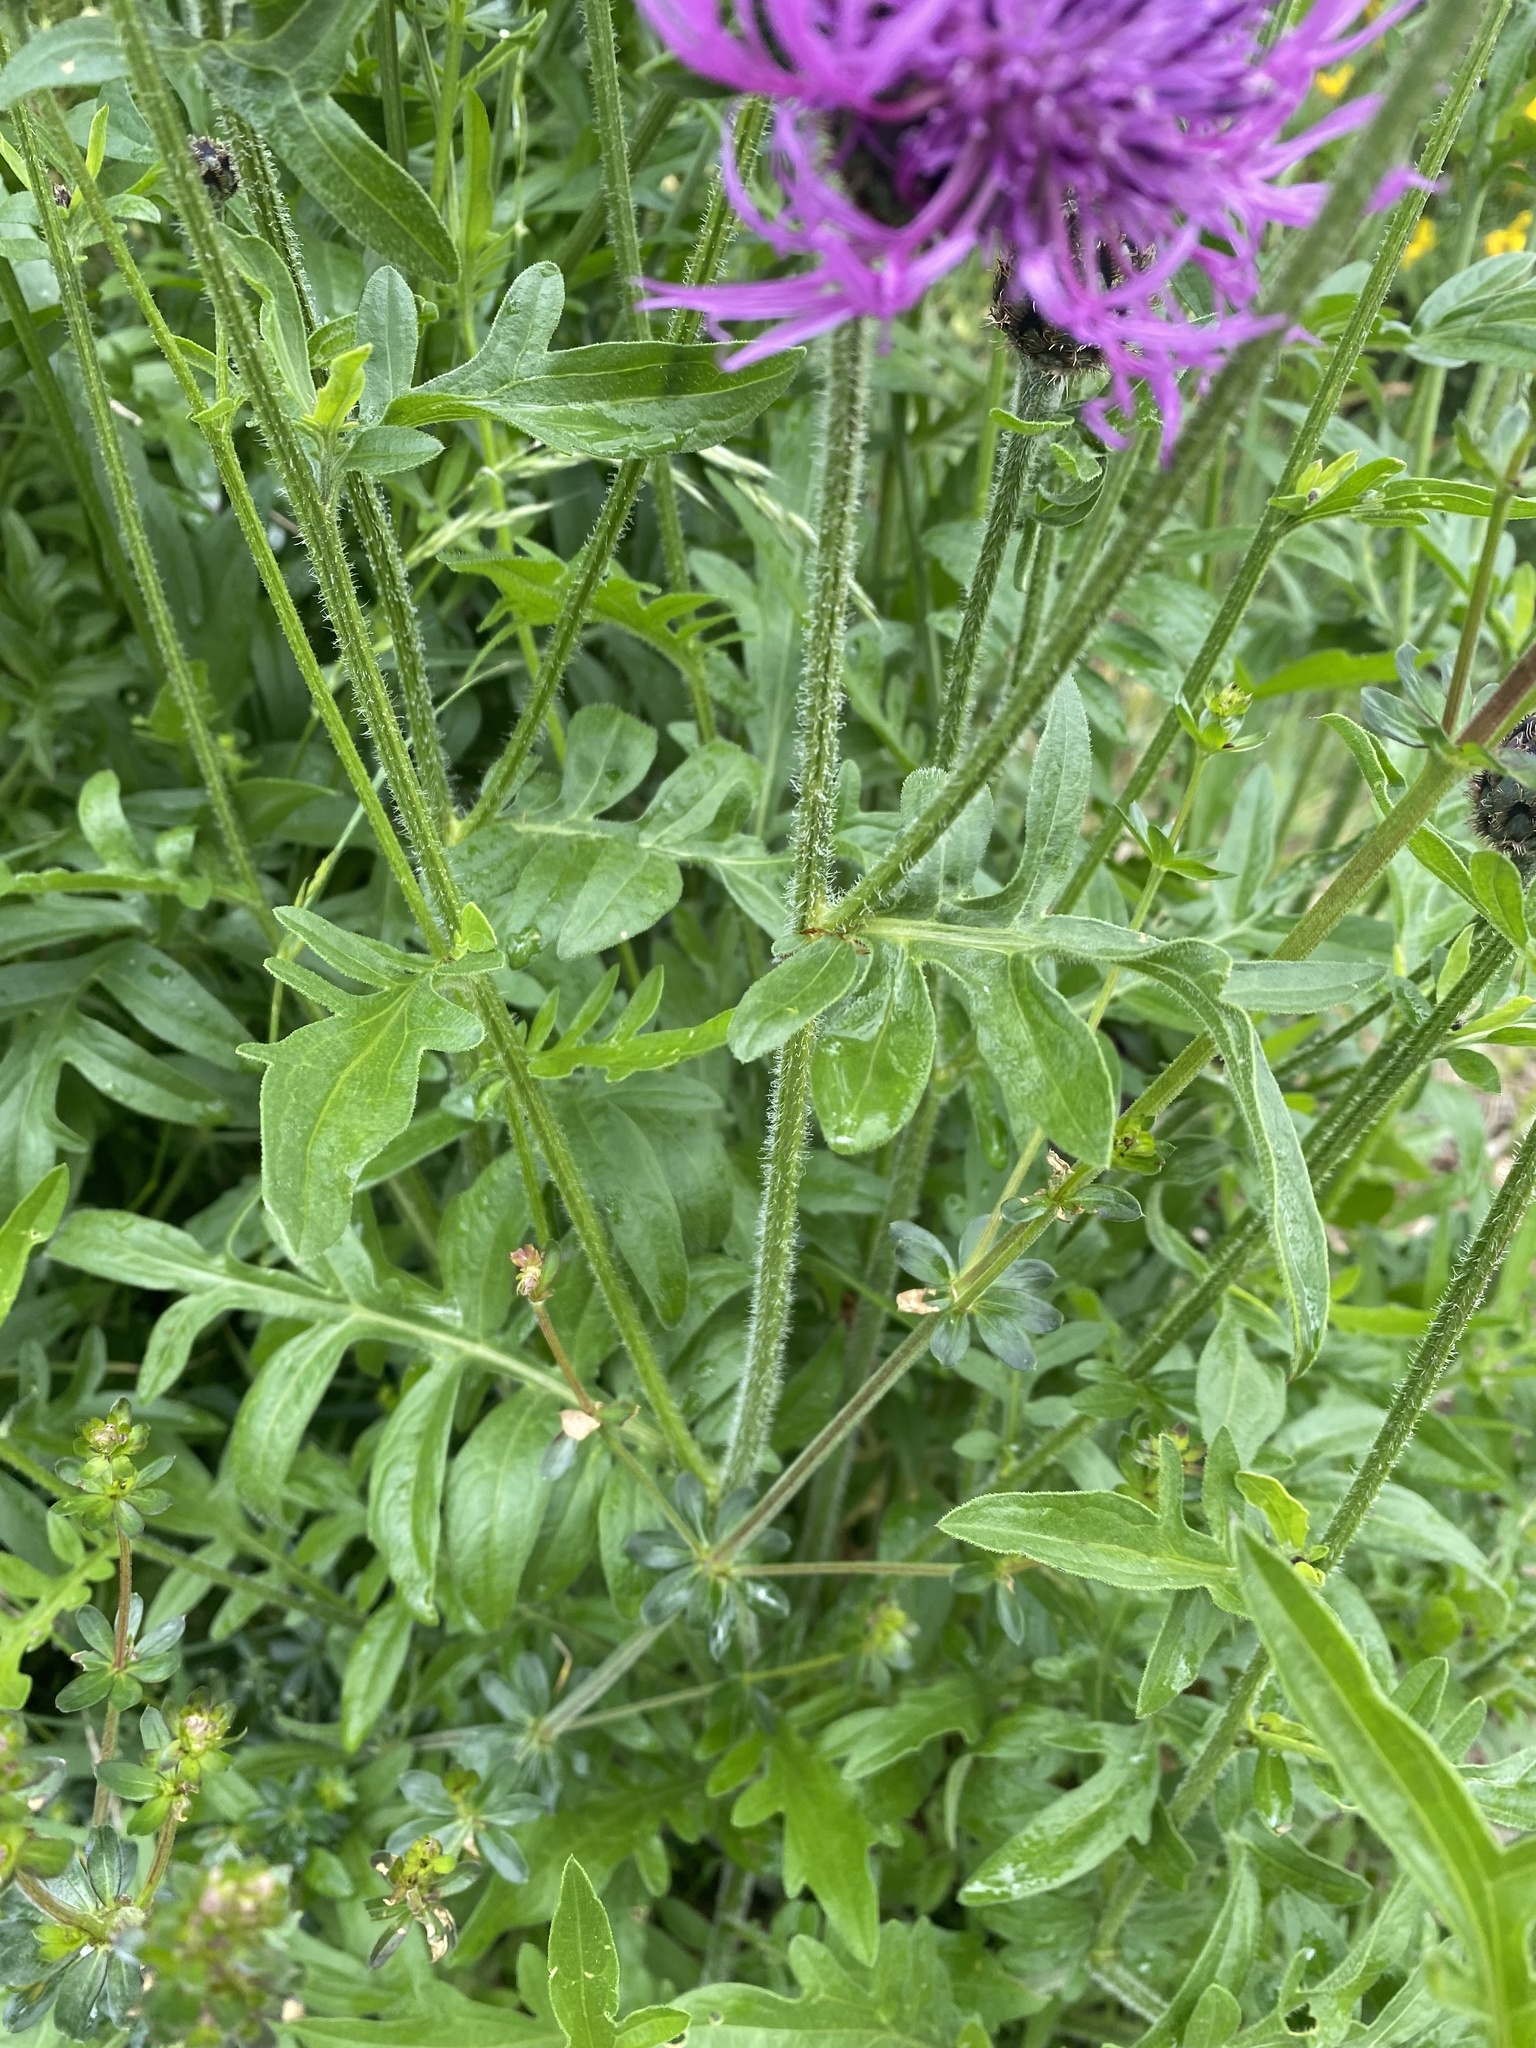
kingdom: Plantae
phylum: Tracheophyta
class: Magnoliopsida
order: Asterales
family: Asteraceae
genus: Centaurea
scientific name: Centaurea scabiosa
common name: Greater knapweed
